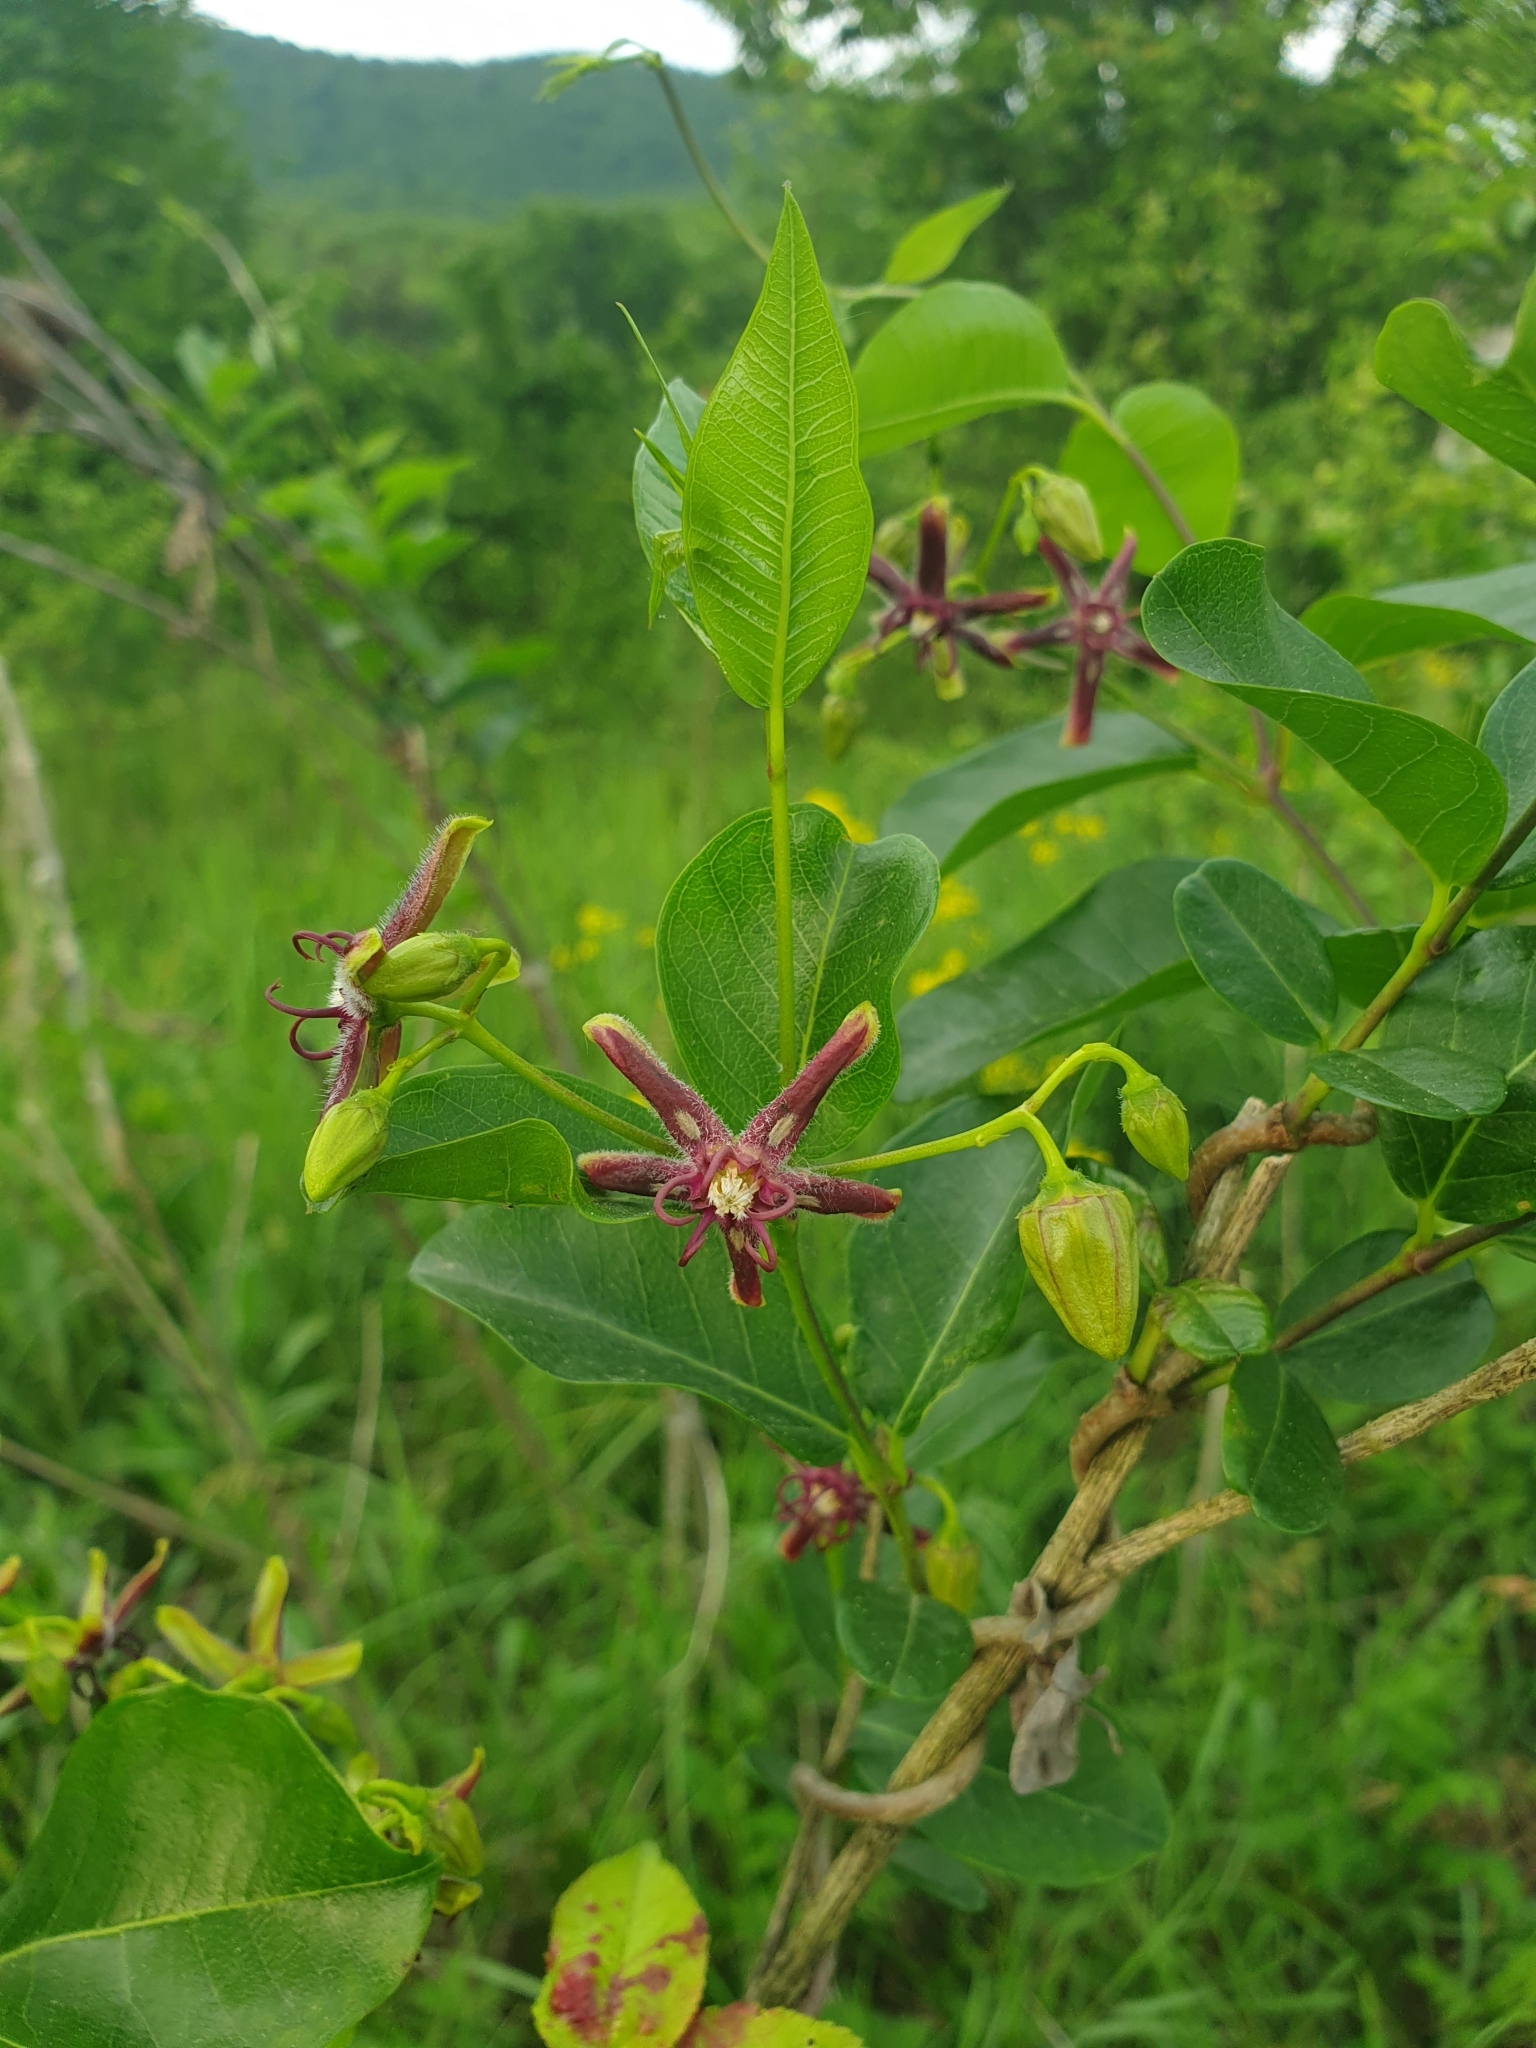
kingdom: Plantae
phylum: Tracheophyta
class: Magnoliopsida
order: Gentianales
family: Apocynaceae
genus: Periploca
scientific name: Periploca graeca
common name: Silkvine
